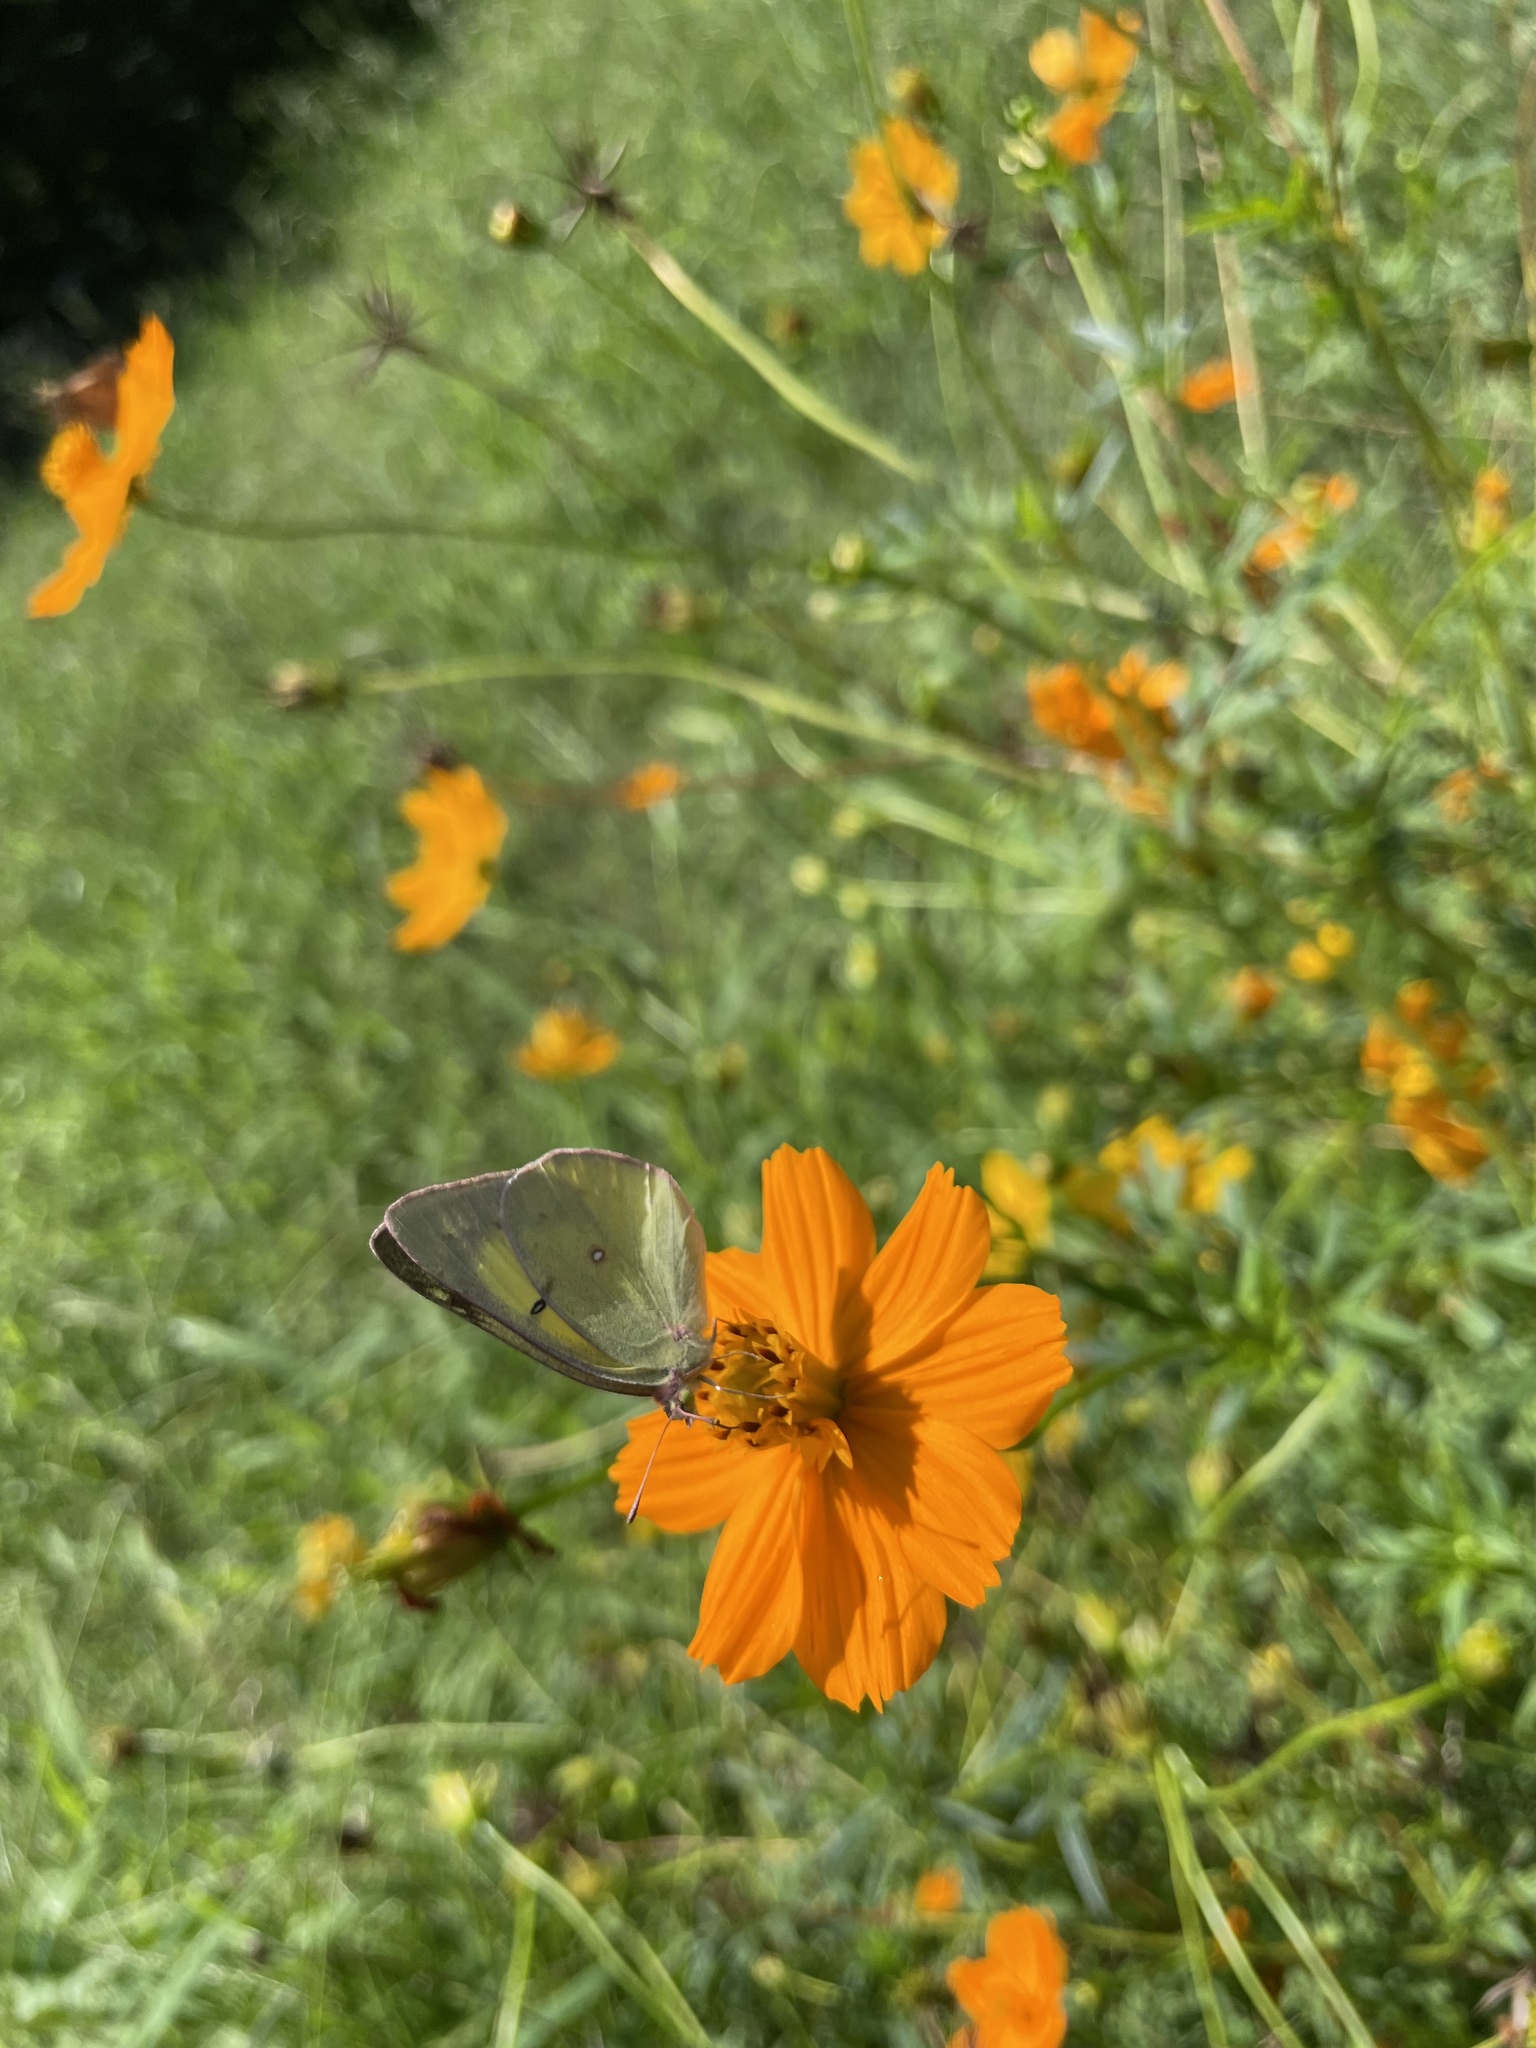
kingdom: Animalia
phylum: Arthropoda
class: Insecta
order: Lepidoptera
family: Pieridae
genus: Colias
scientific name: Colias eurytheme
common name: Alfalfa butterfly
